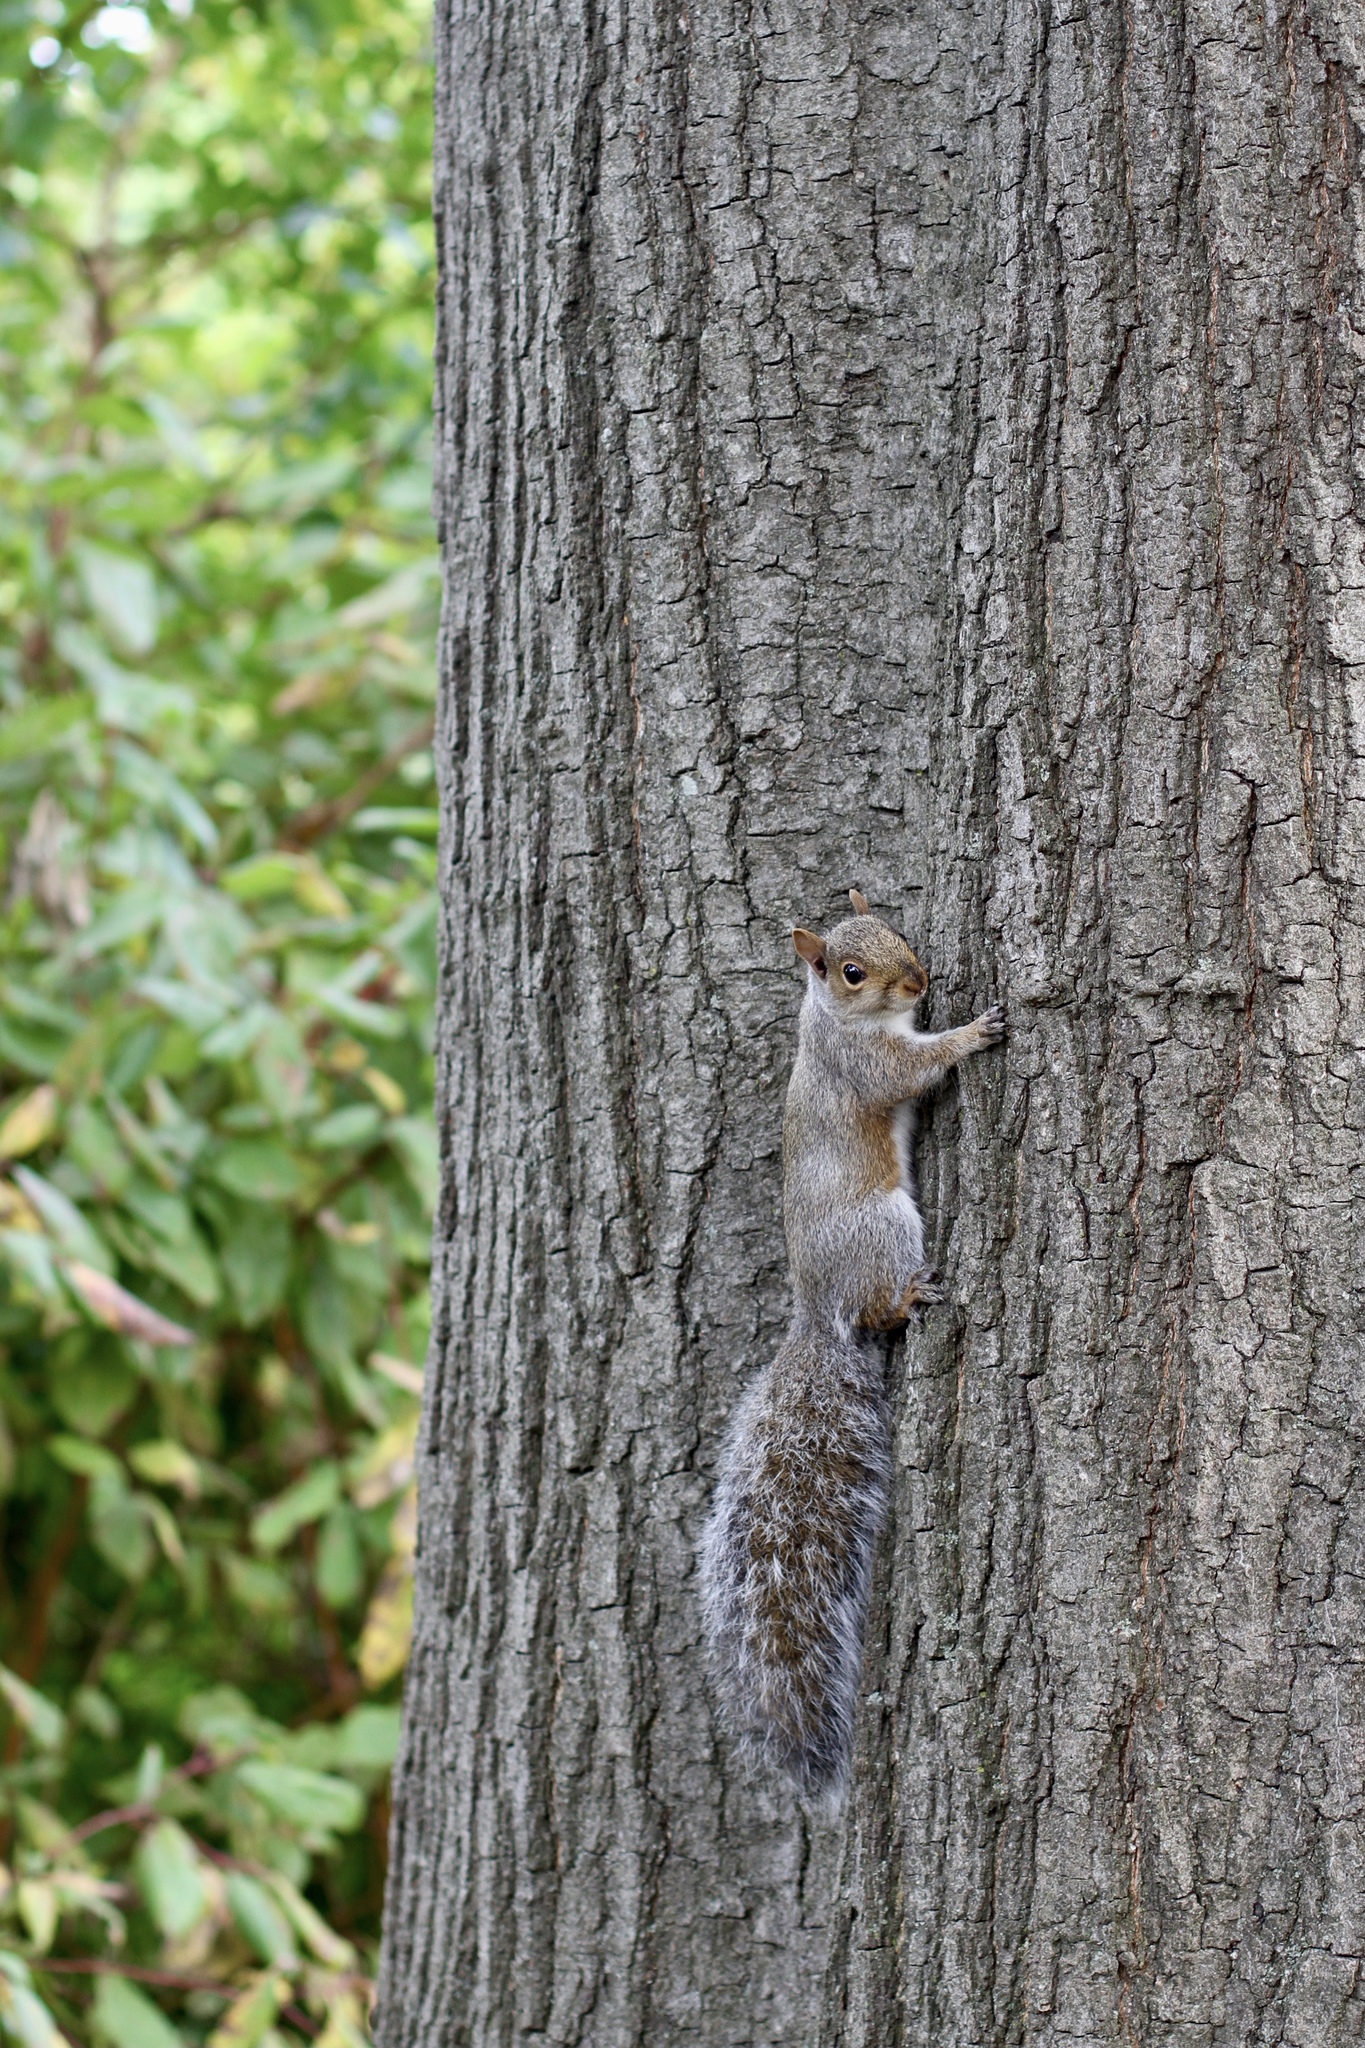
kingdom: Animalia
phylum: Chordata
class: Mammalia
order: Rodentia
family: Sciuridae
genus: Sciurus
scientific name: Sciurus carolinensis
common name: Eastern gray squirrel
